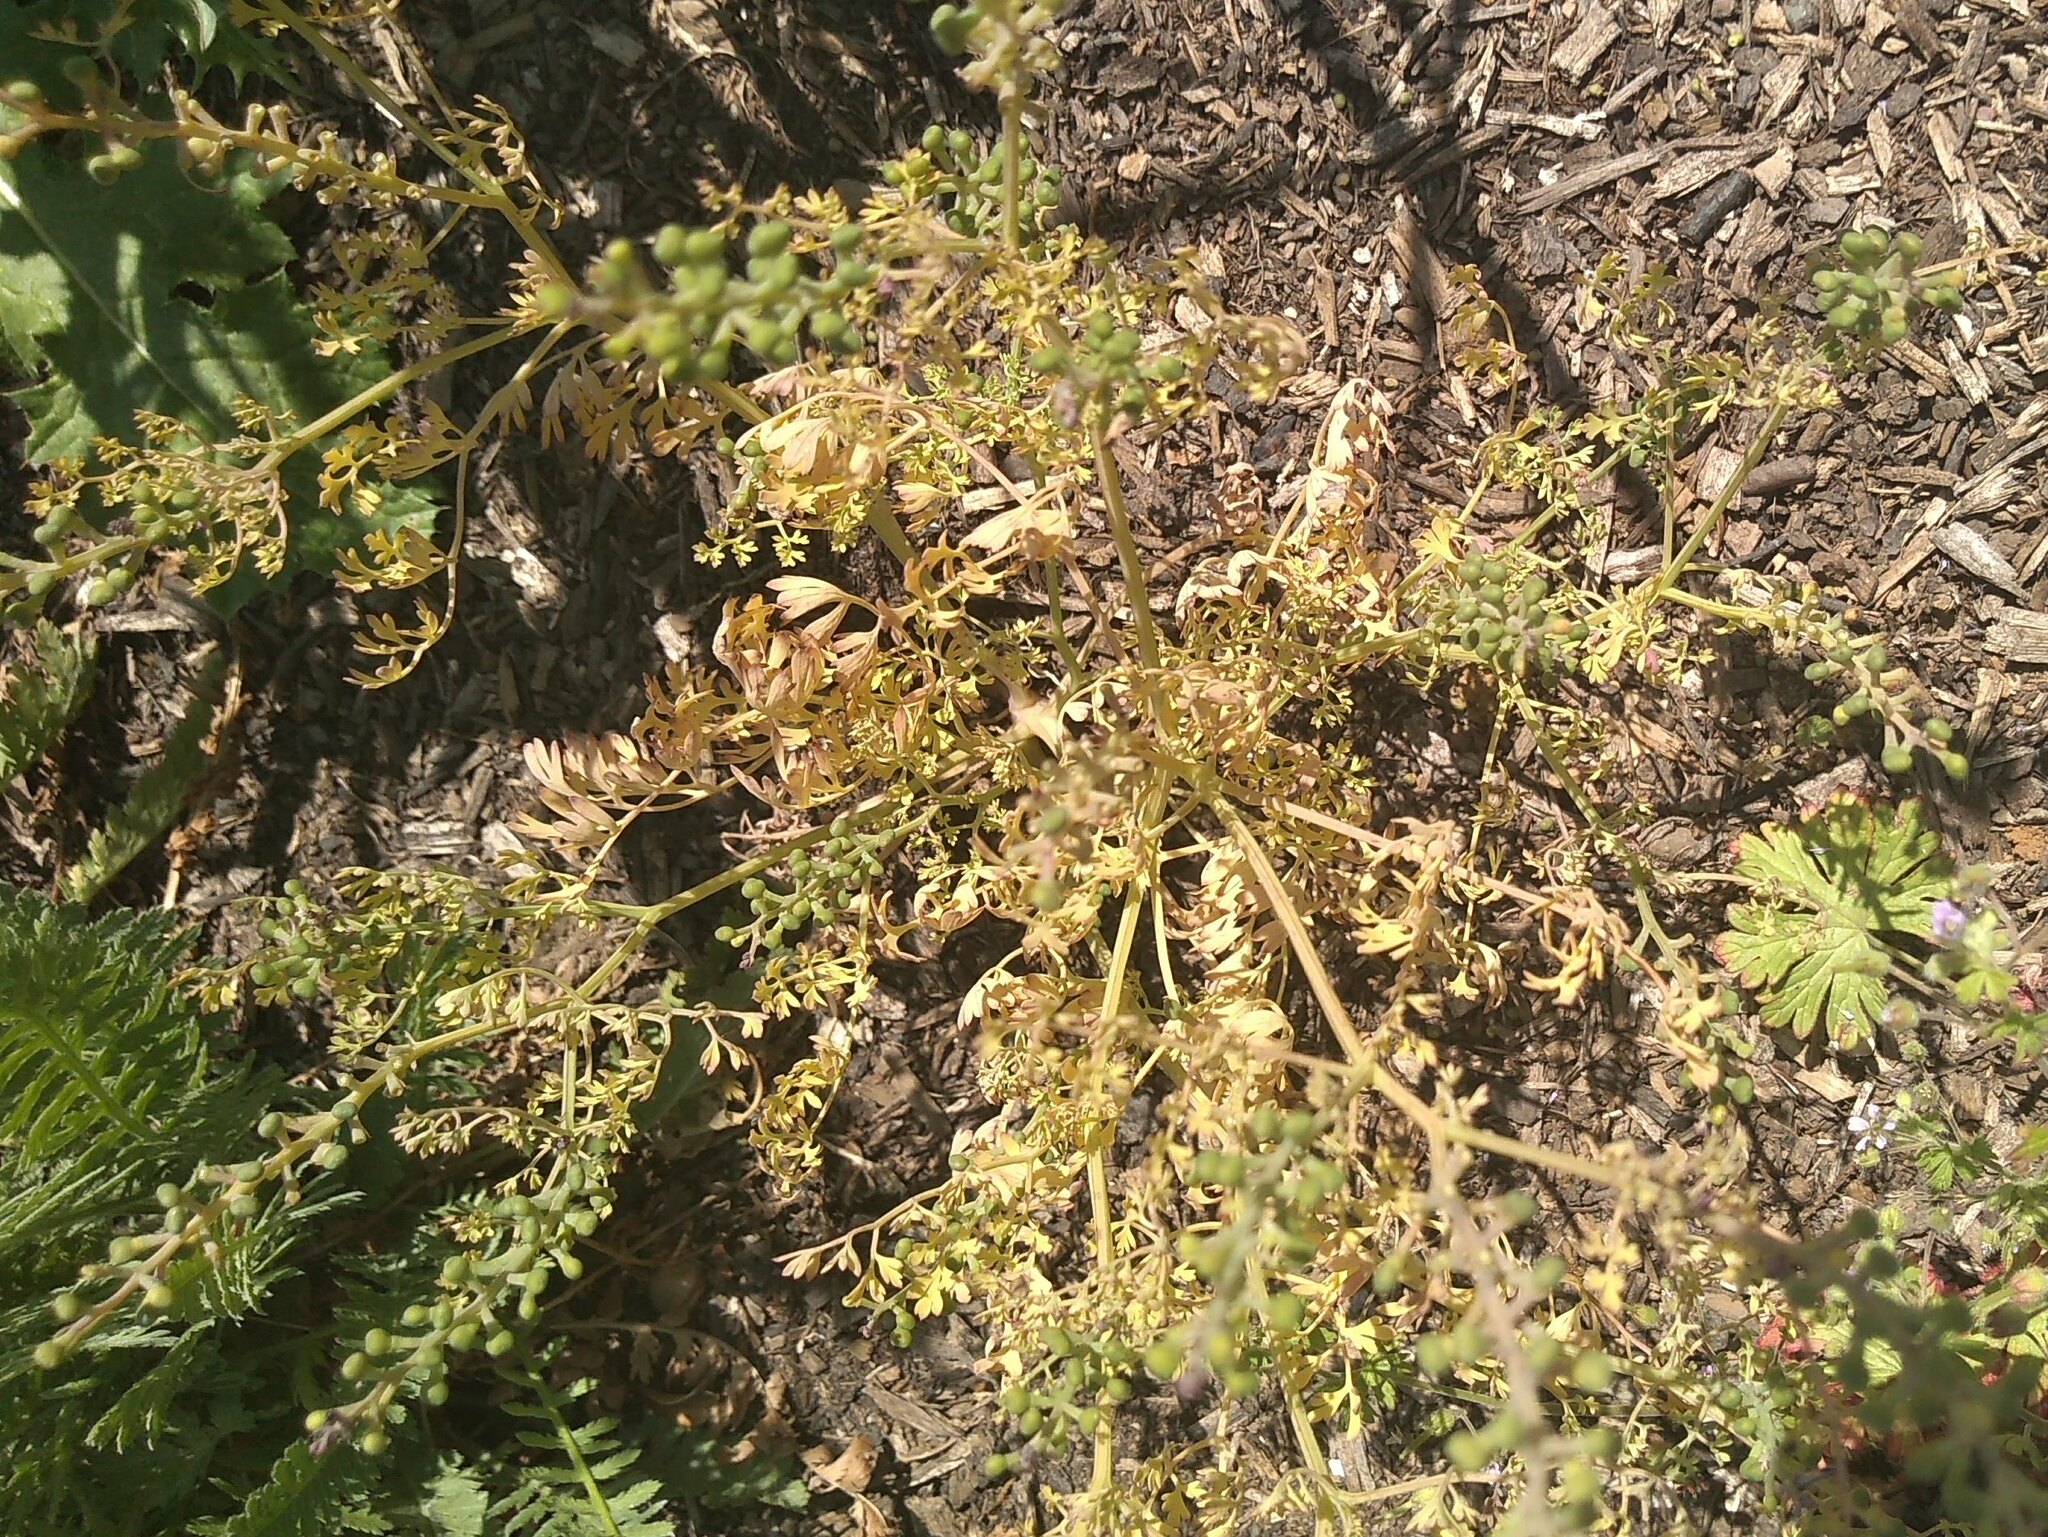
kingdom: Plantae
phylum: Tracheophyta
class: Magnoliopsida
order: Ranunculales
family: Papaveraceae
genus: Fumaria
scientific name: Fumaria officinalis
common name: Common fumitory
